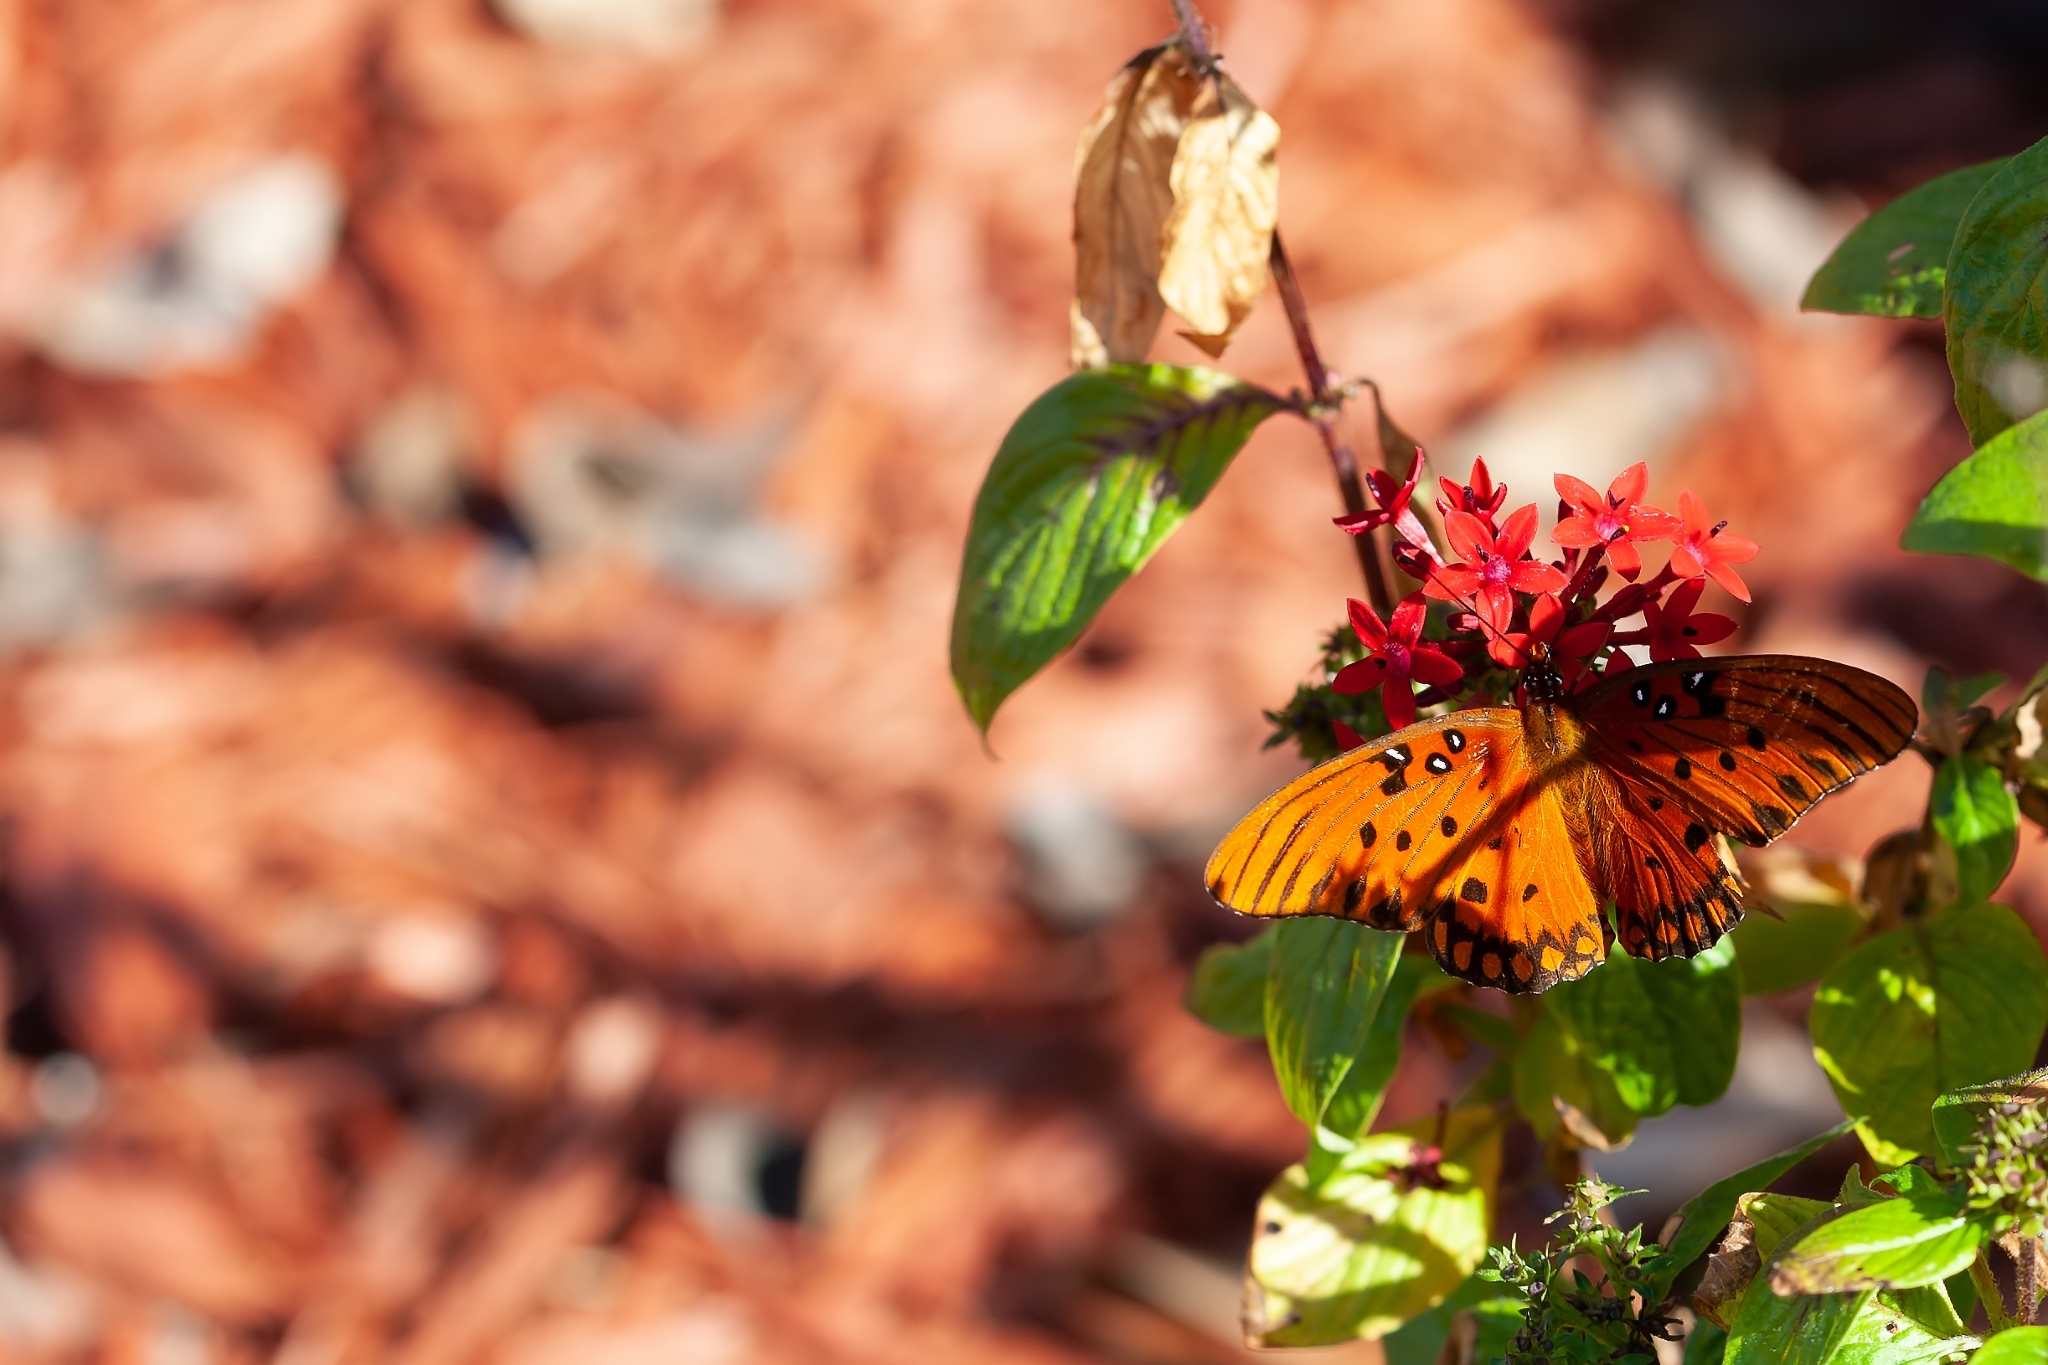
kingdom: Animalia
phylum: Arthropoda
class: Insecta
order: Lepidoptera
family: Nymphalidae
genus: Dione
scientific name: Dione vanillae
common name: Gulf fritillary
